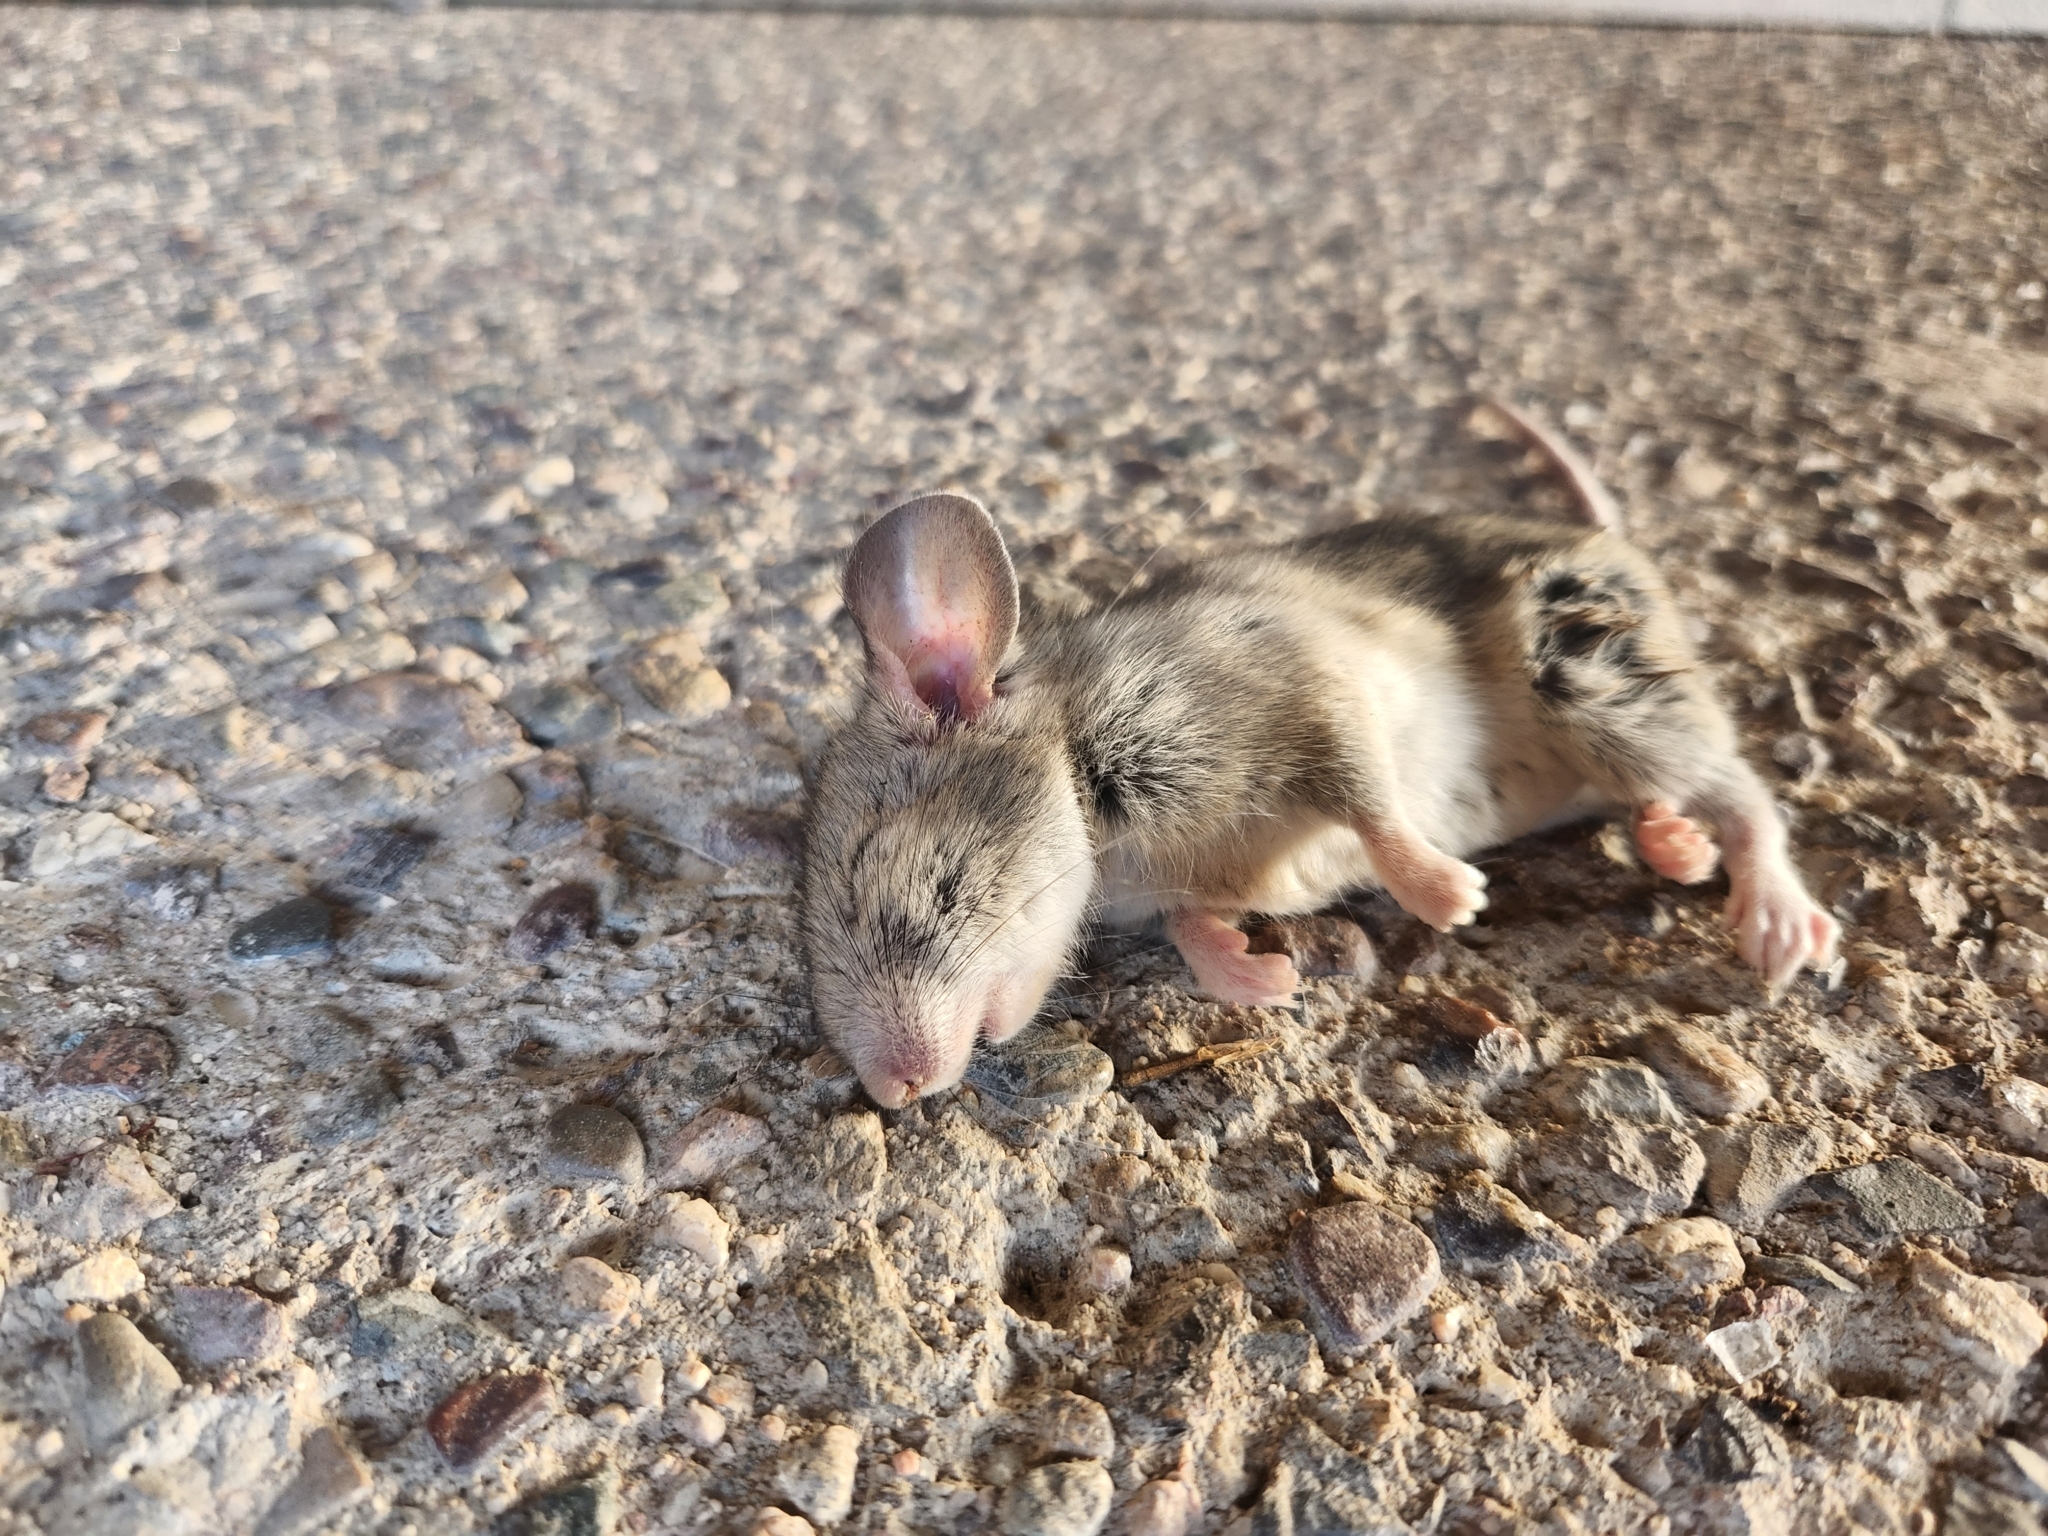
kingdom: Animalia
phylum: Chordata
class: Mammalia
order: Rodentia
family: Cricetidae
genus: Neotoma
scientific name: Neotoma albigula
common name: White-throated woodrat
